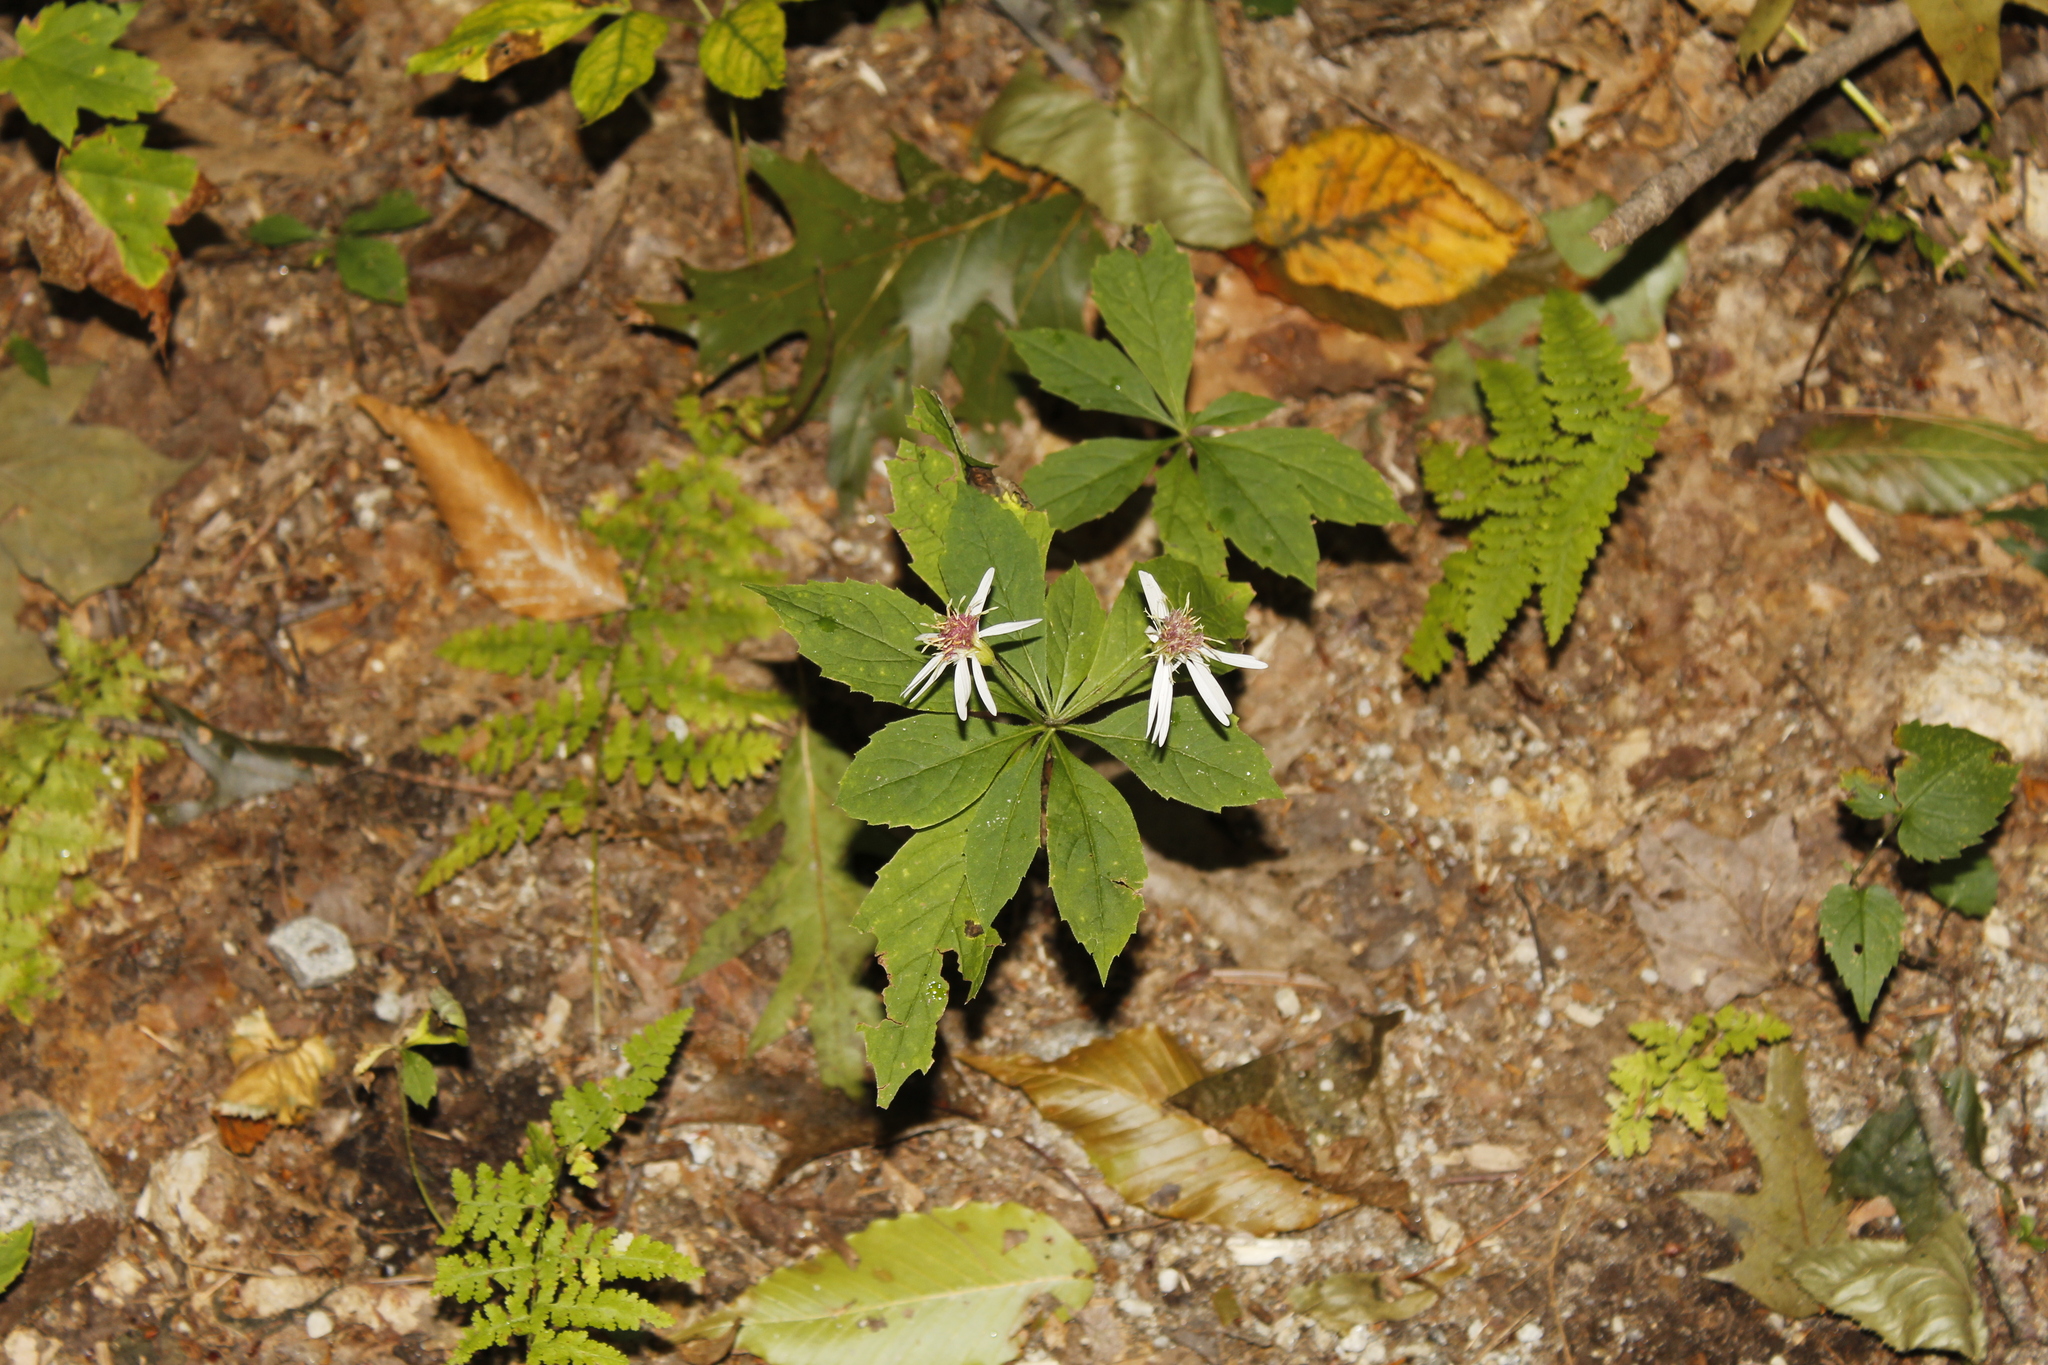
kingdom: Plantae
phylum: Tracheophyta
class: Magnoliopsida
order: Asterales
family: Asteraceae
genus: Oclemena
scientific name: Oclemena acuminata
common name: Mountain aster
